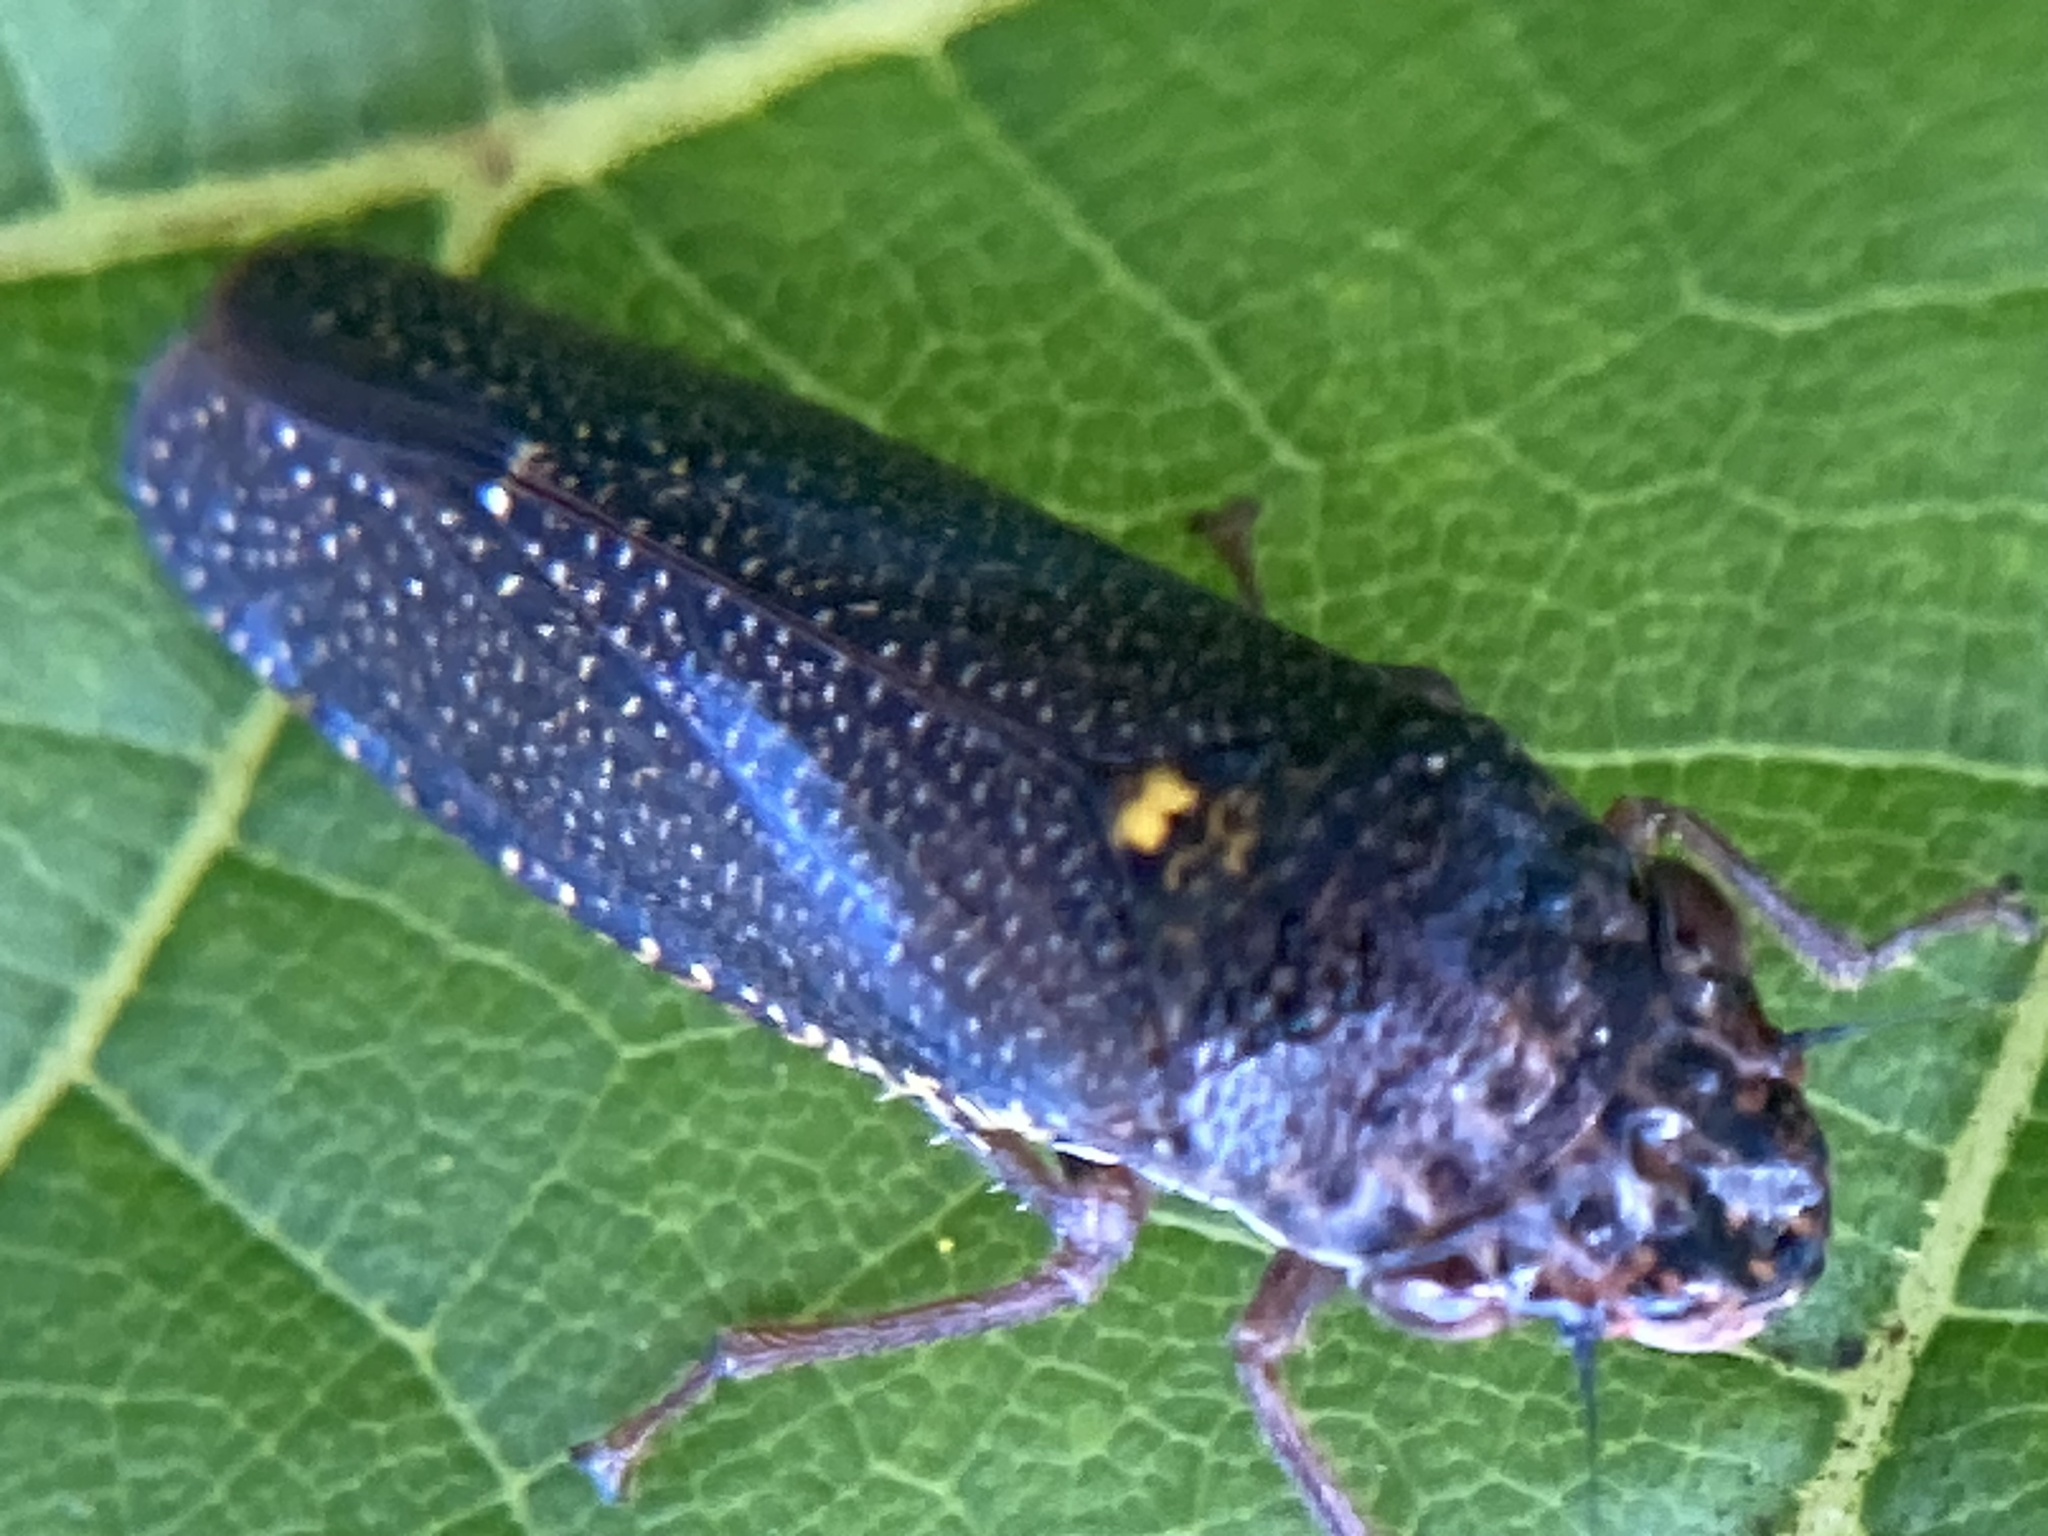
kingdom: Animalia
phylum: Arthropoda
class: Insecta
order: Hemiptera
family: Cicadellidae
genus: Paraulacizes
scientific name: Paraulacizes irrorata
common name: Speckled sharpshooter
